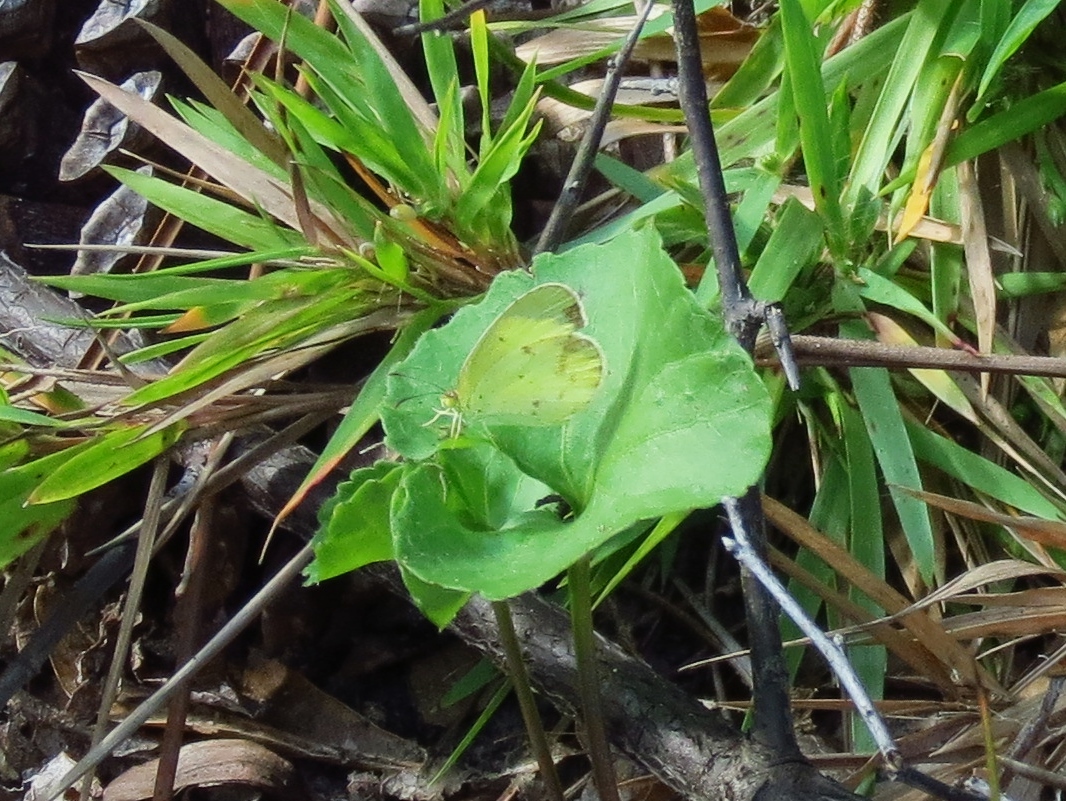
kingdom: Animalia
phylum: Arthropoda
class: Insecta
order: Lepidoptera
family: Pieridae
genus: Pyrisitia
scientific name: Pyrisitia lisa
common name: Little yellow
